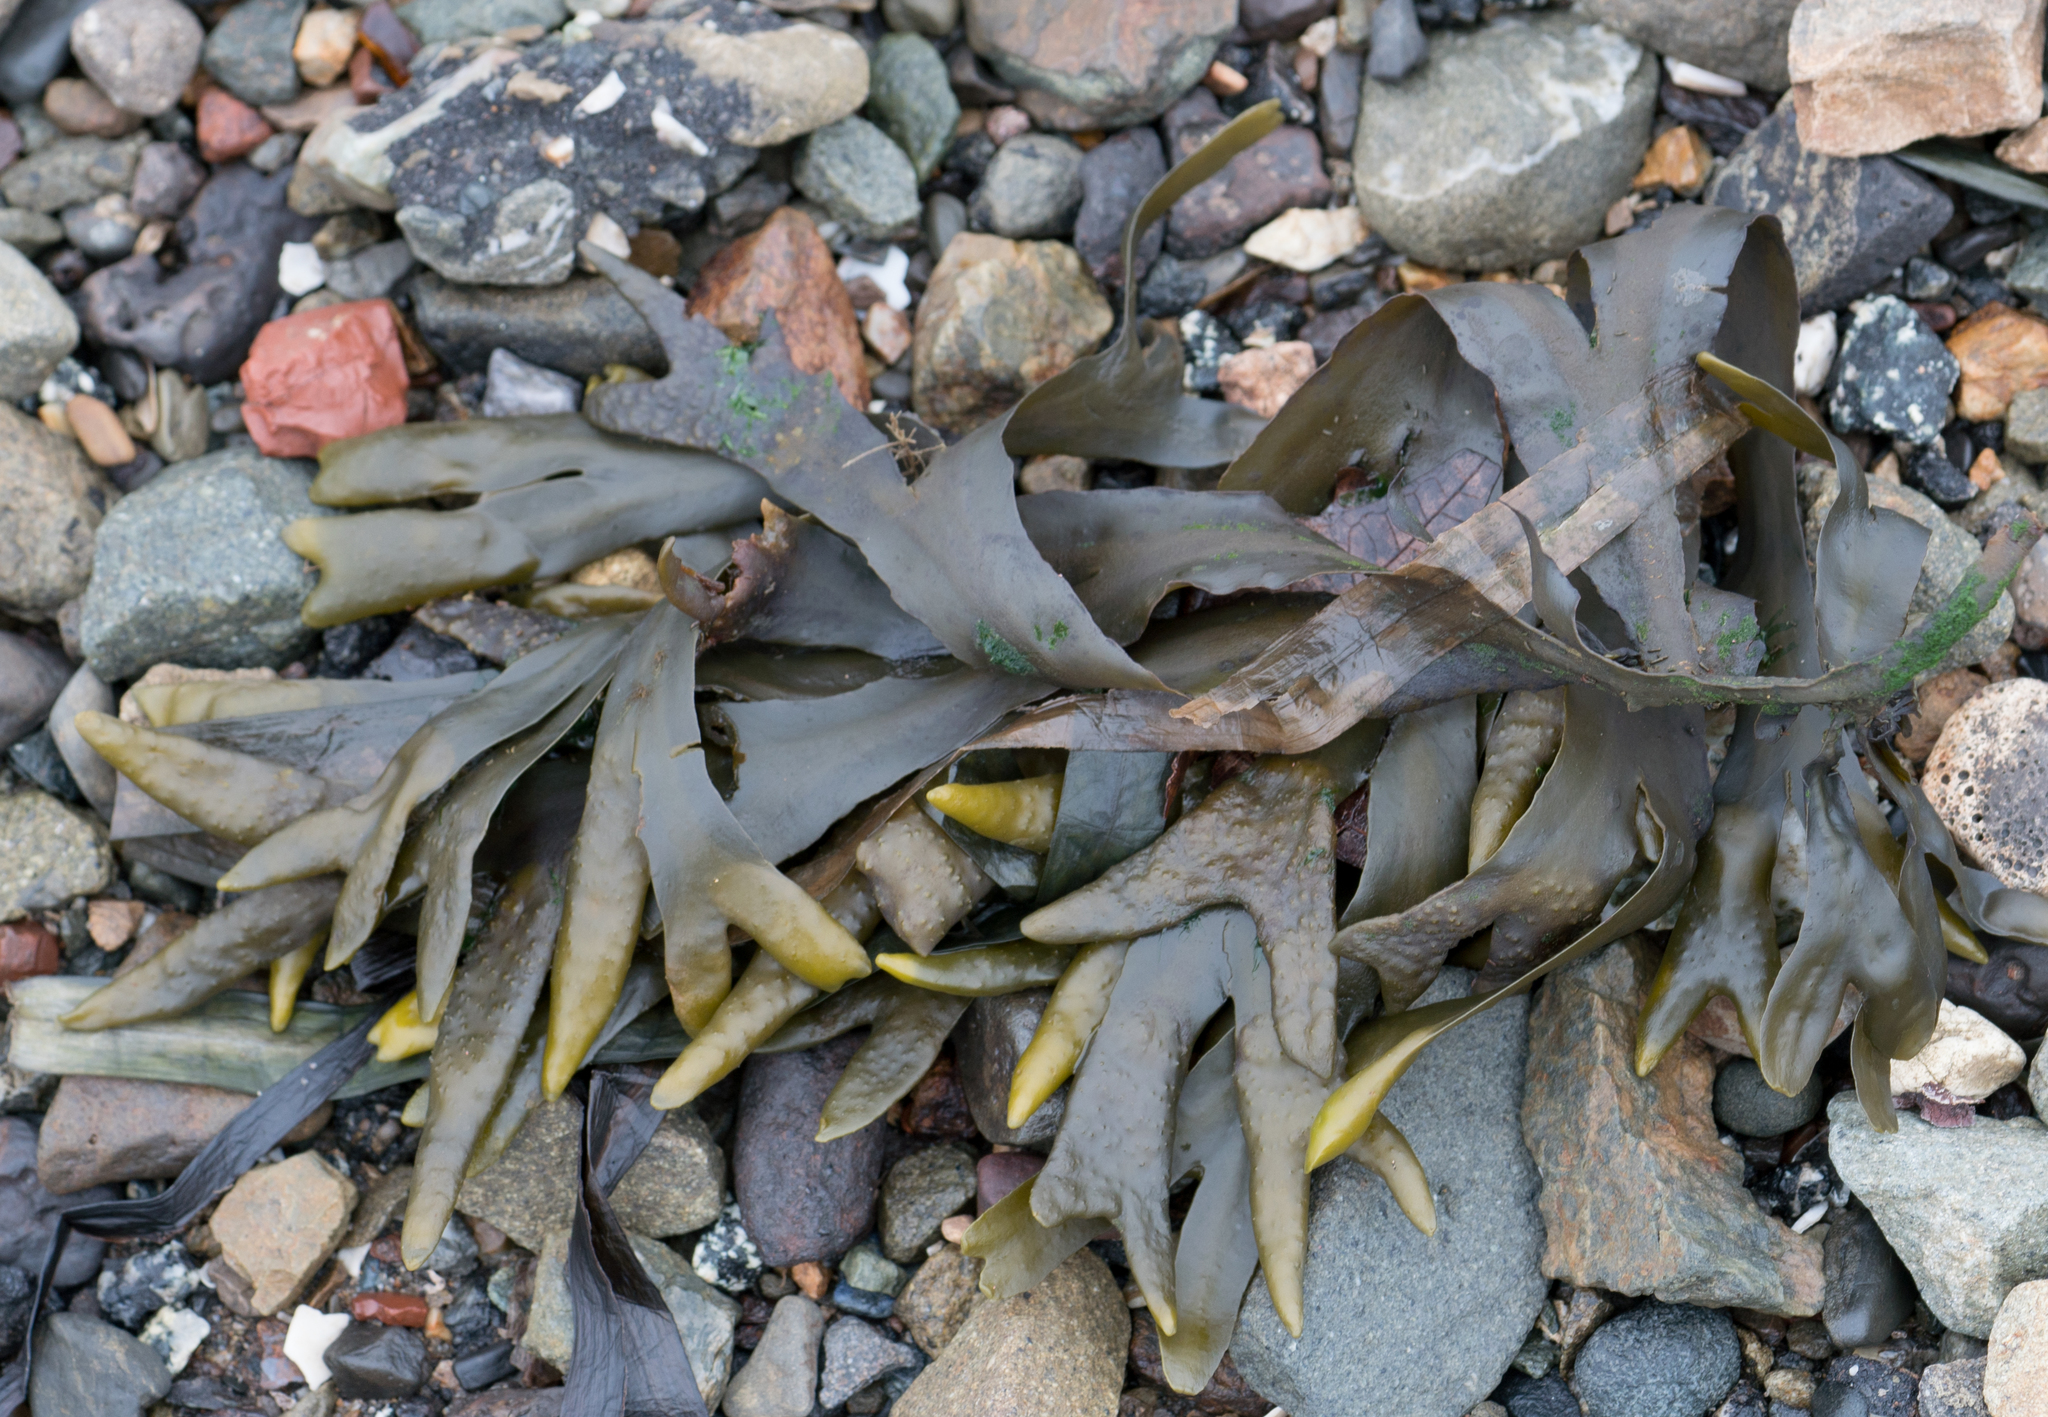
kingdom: Chromista
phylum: Ochrophyta
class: Phaeophyceae
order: Fucales
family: Fucaceae
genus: Fucus
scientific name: Fucus distichus
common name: Rockweed
